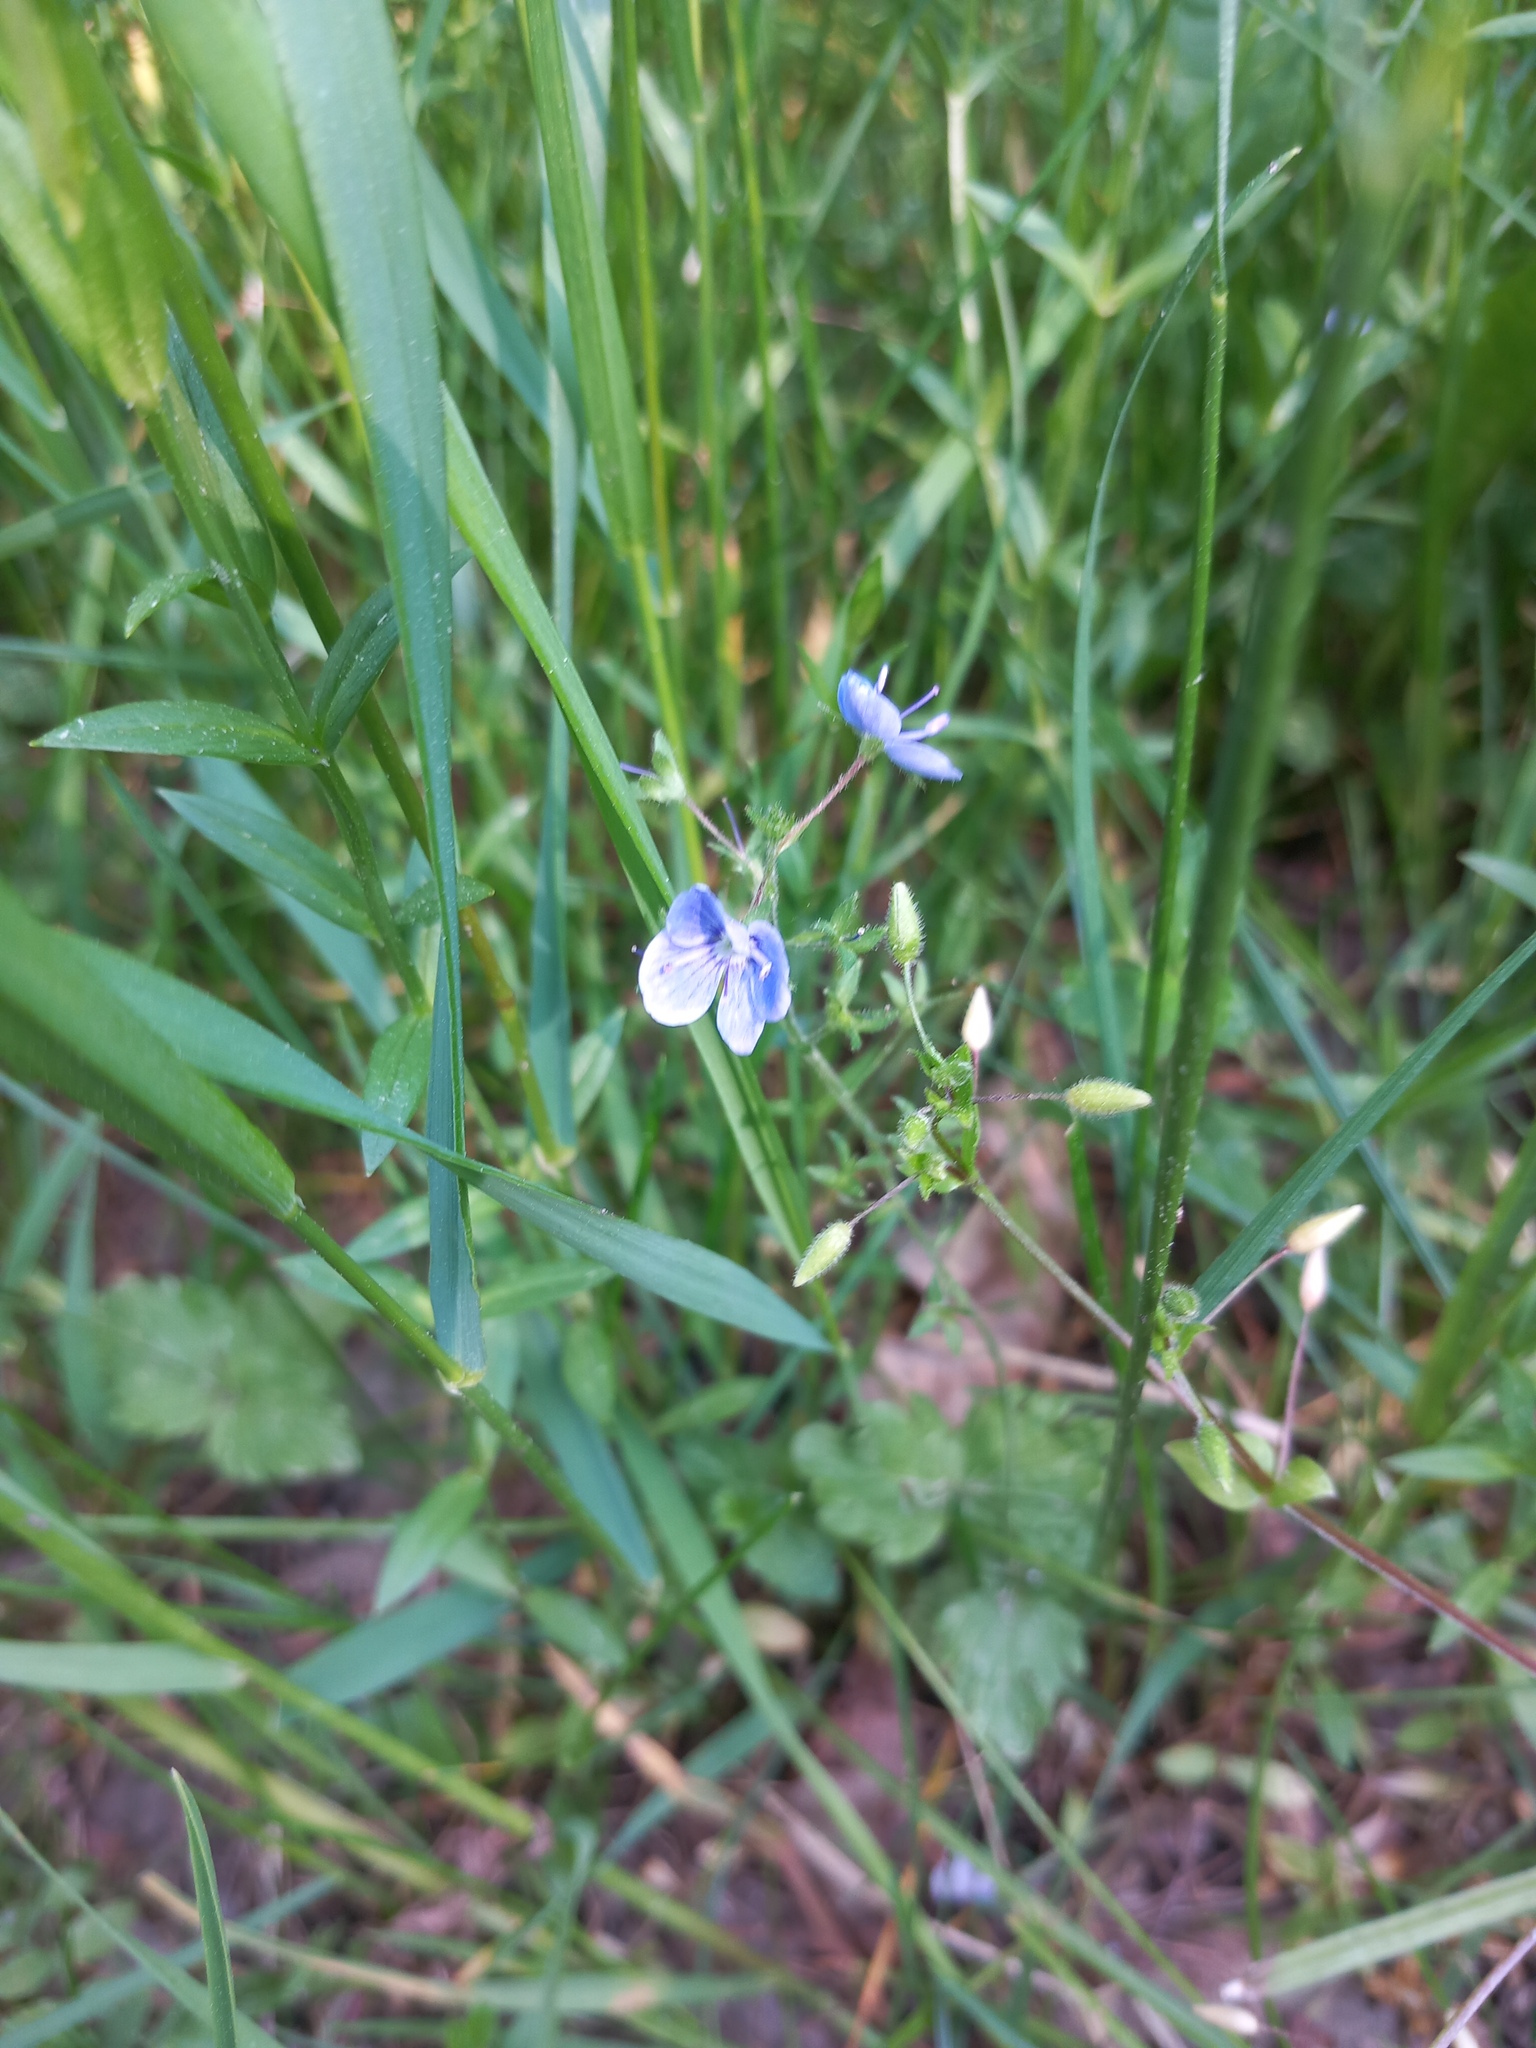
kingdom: Plantae
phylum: Tracheophyta
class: Magnoliopsida
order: Lamiales
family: Plantaginaceae
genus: Veronica
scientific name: Veronica chamaedrys
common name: Germander speedwell
